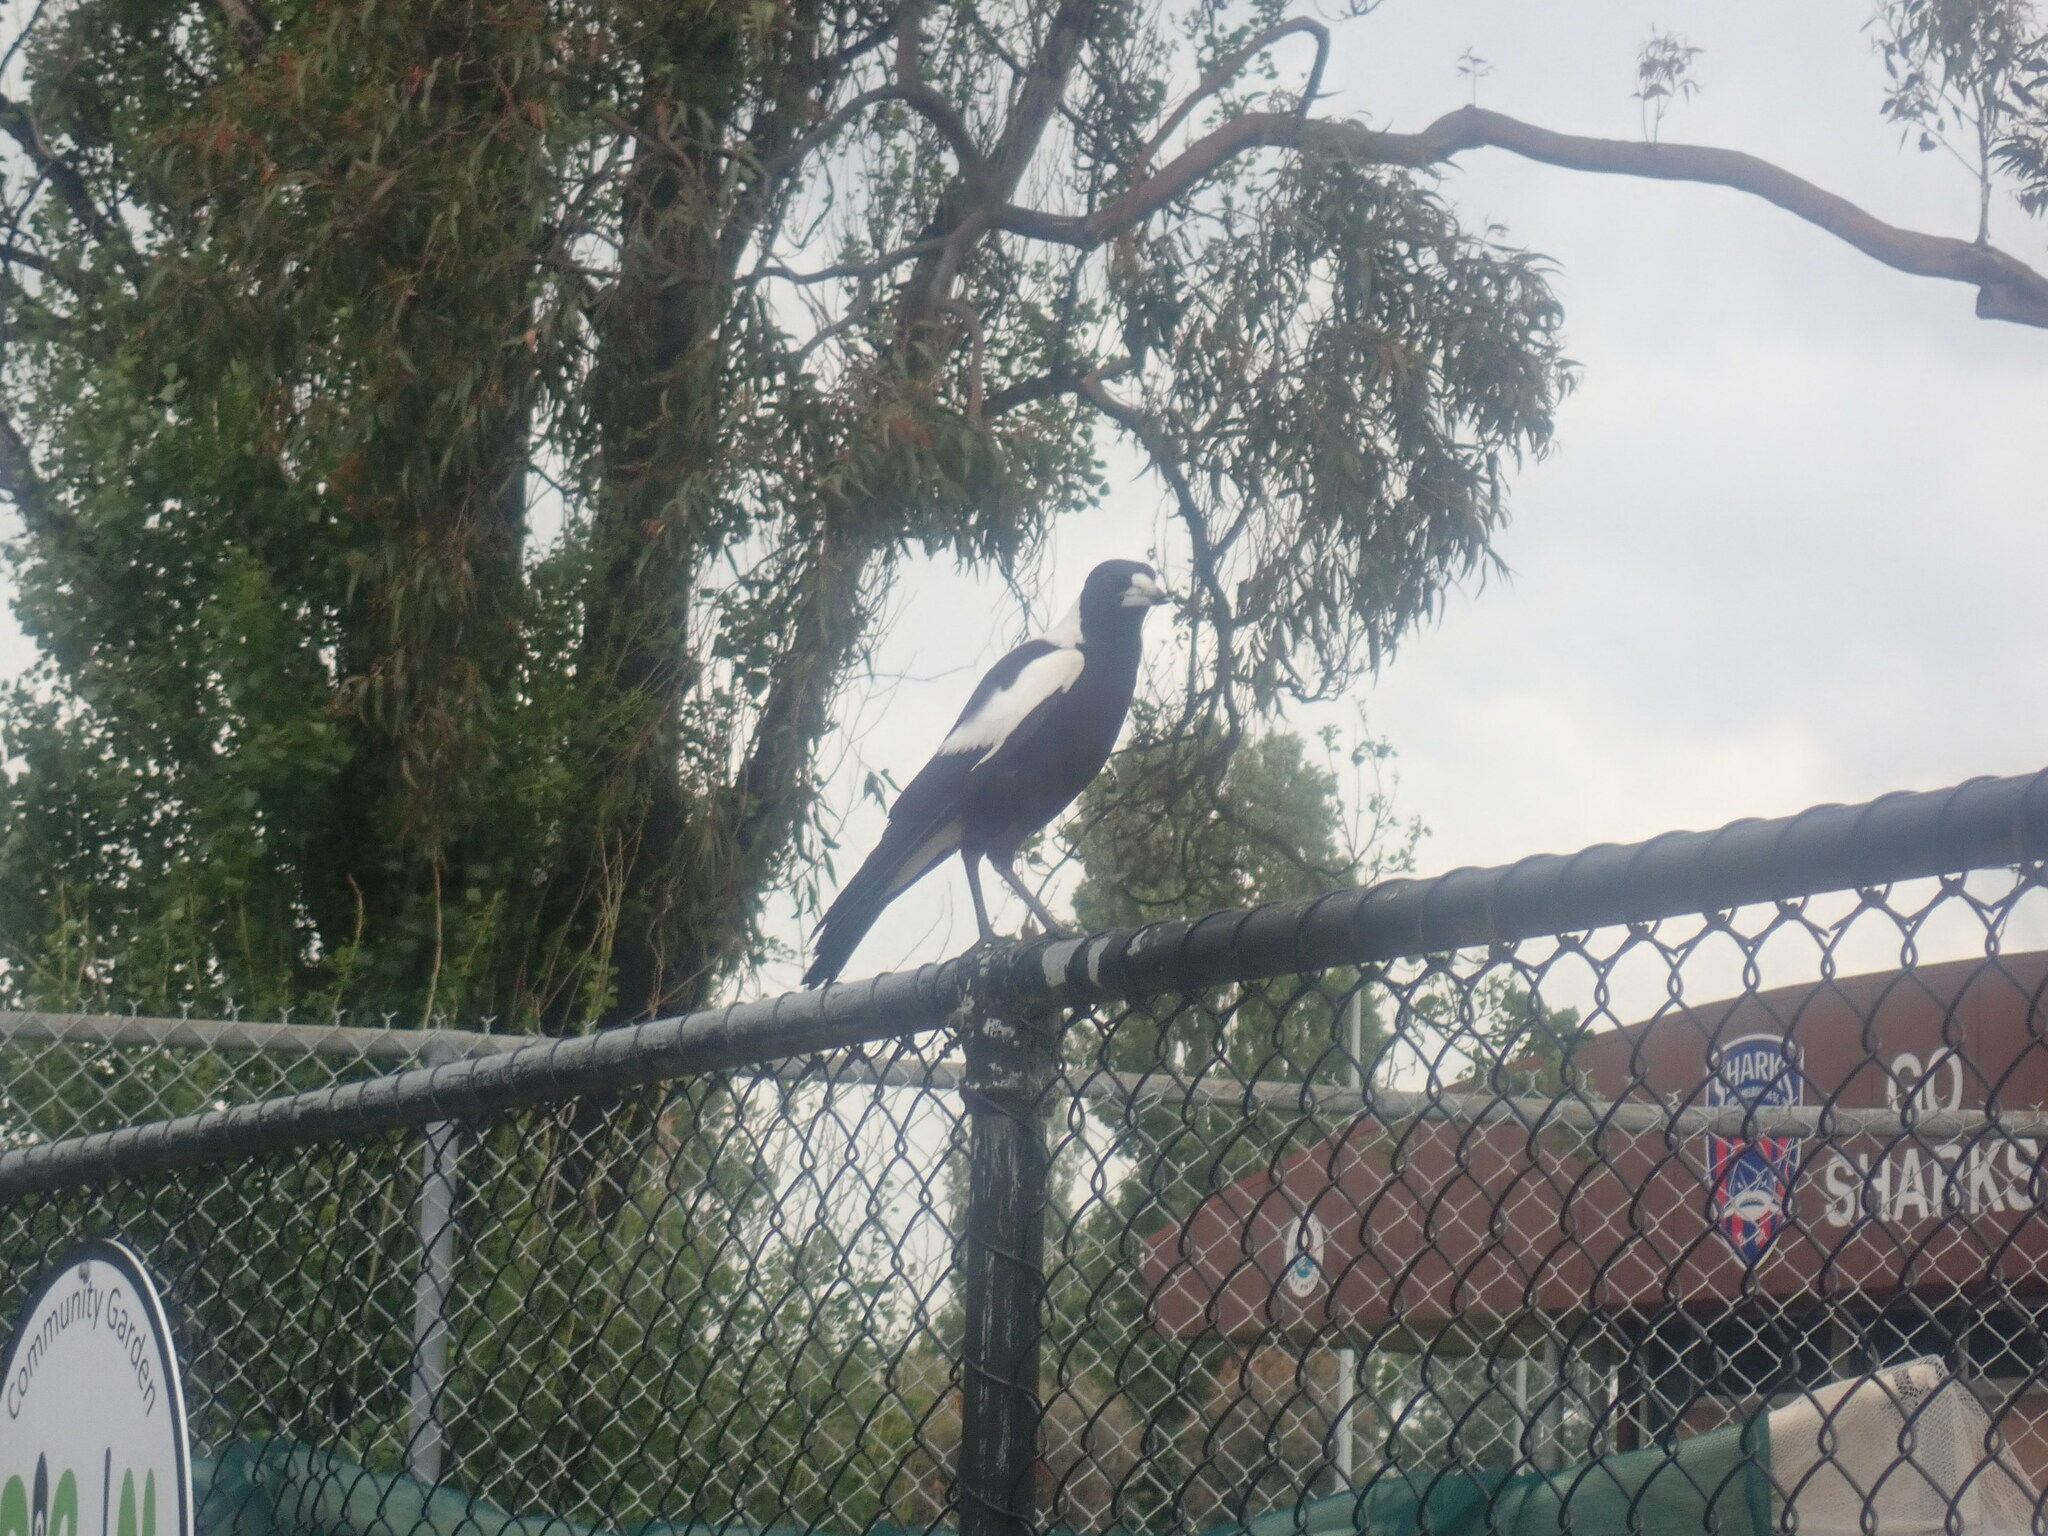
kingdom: Animalia
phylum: Chordata
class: Aves
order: Passeriformes
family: Cracticidae
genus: Gymnorhina
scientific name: Gymnorhina tibicen
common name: Australian magpie
